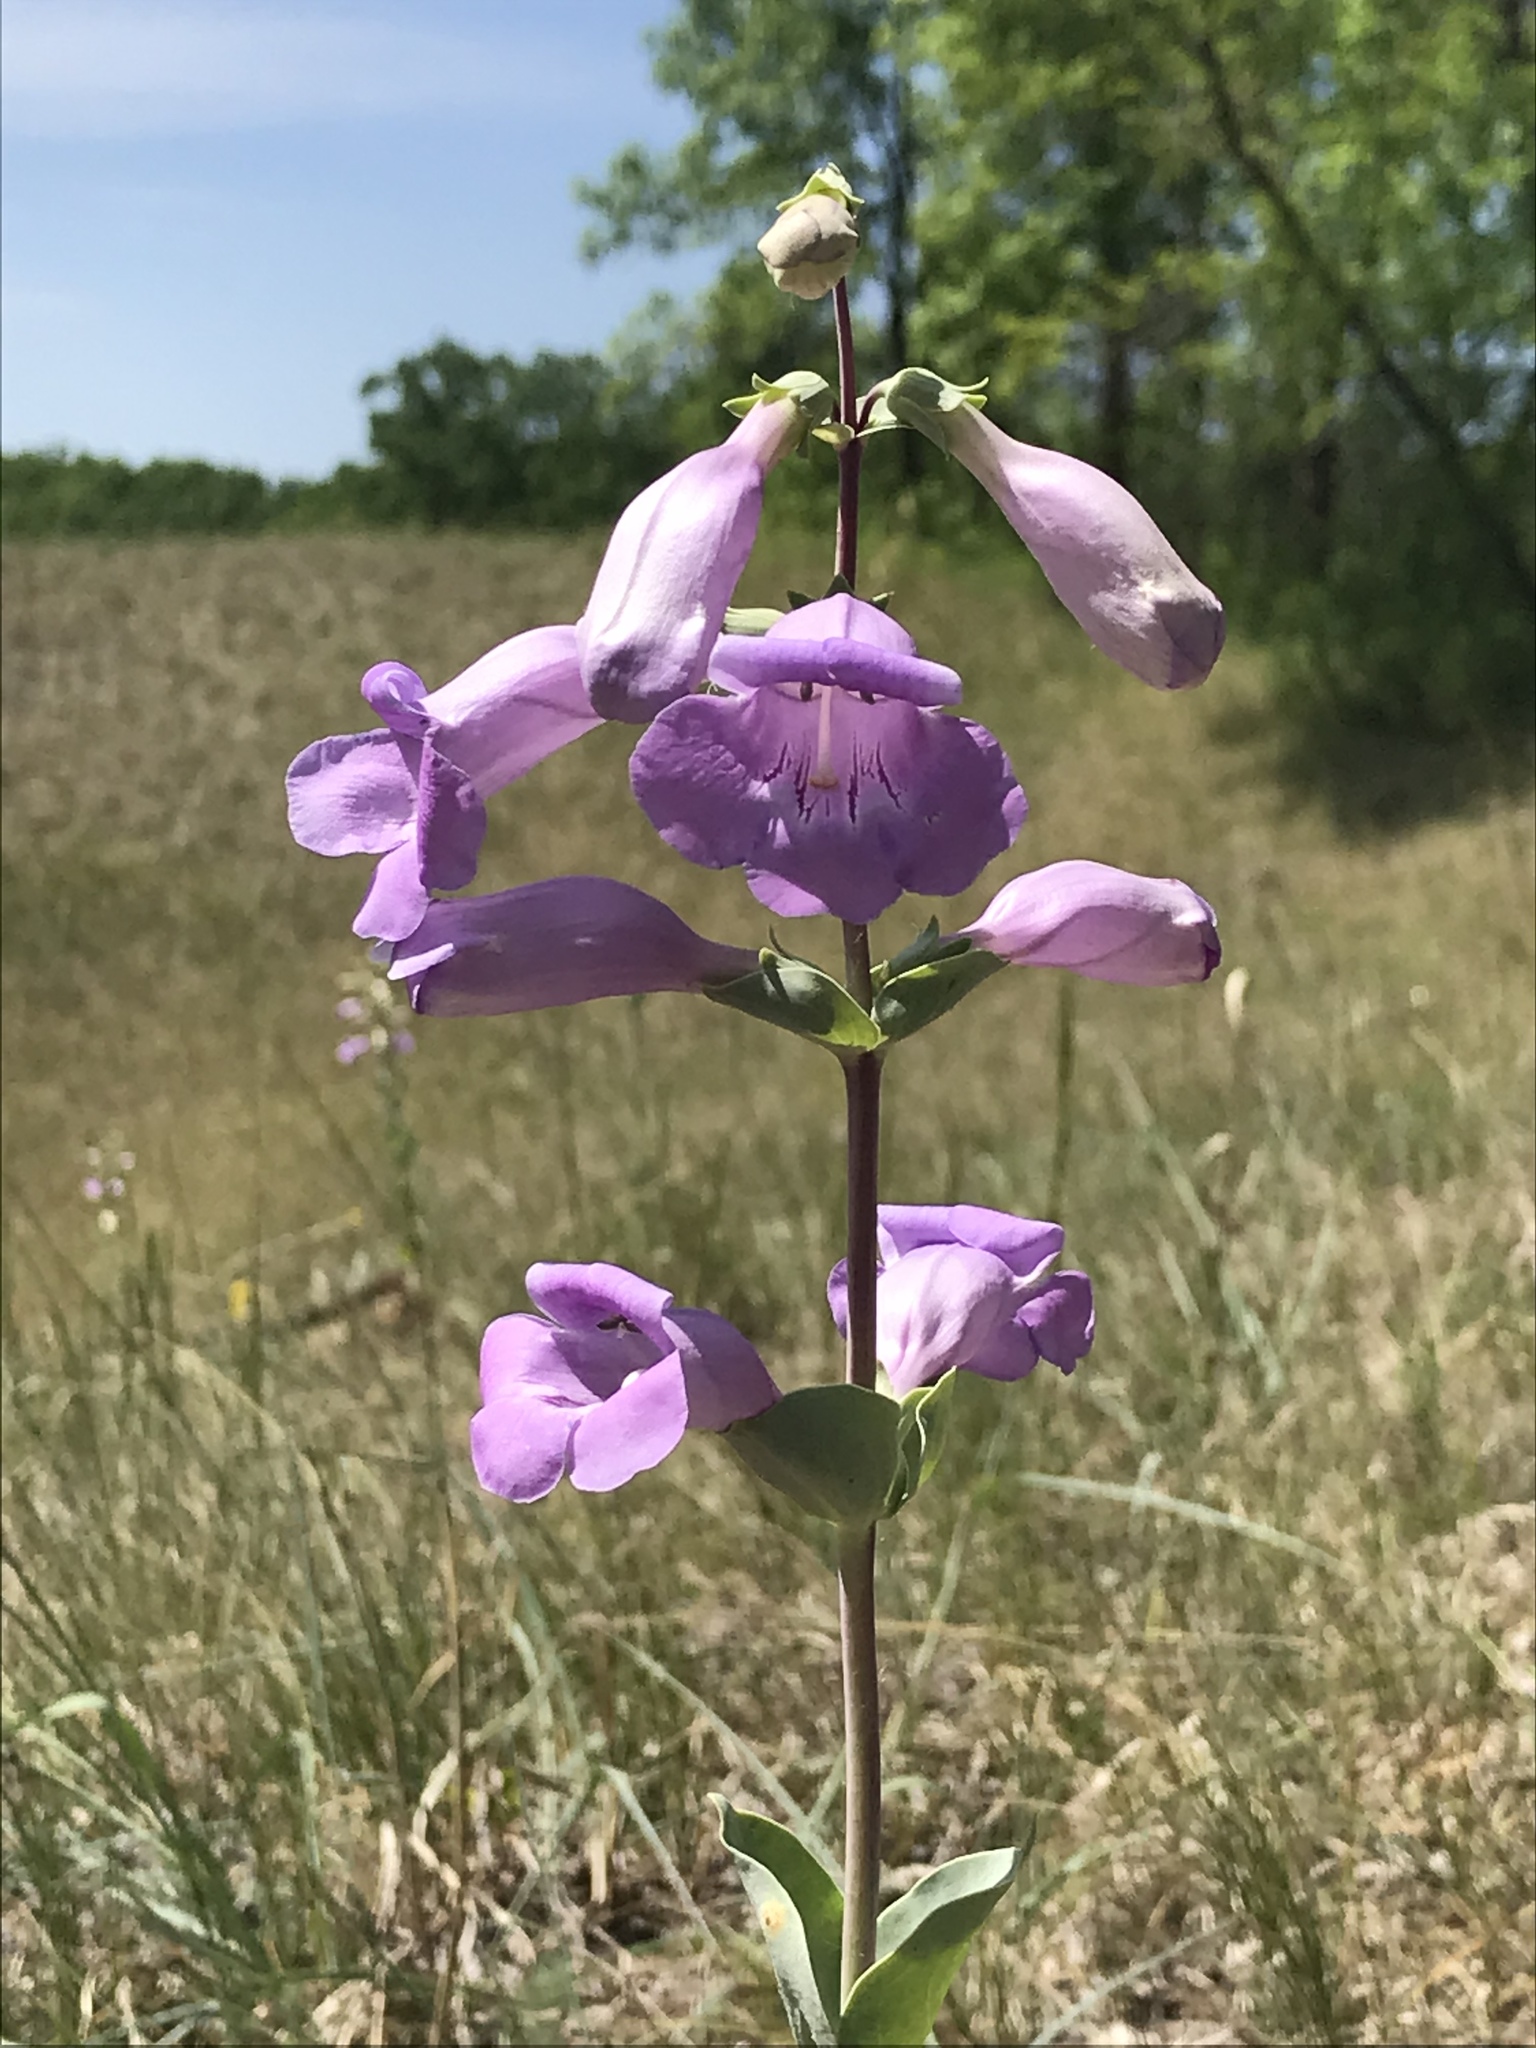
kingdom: Plantae
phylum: Tracheophyta
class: Magnoliopsida
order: Lamiales
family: Plantaginaceae
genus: Penstemon
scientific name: Penstemon
